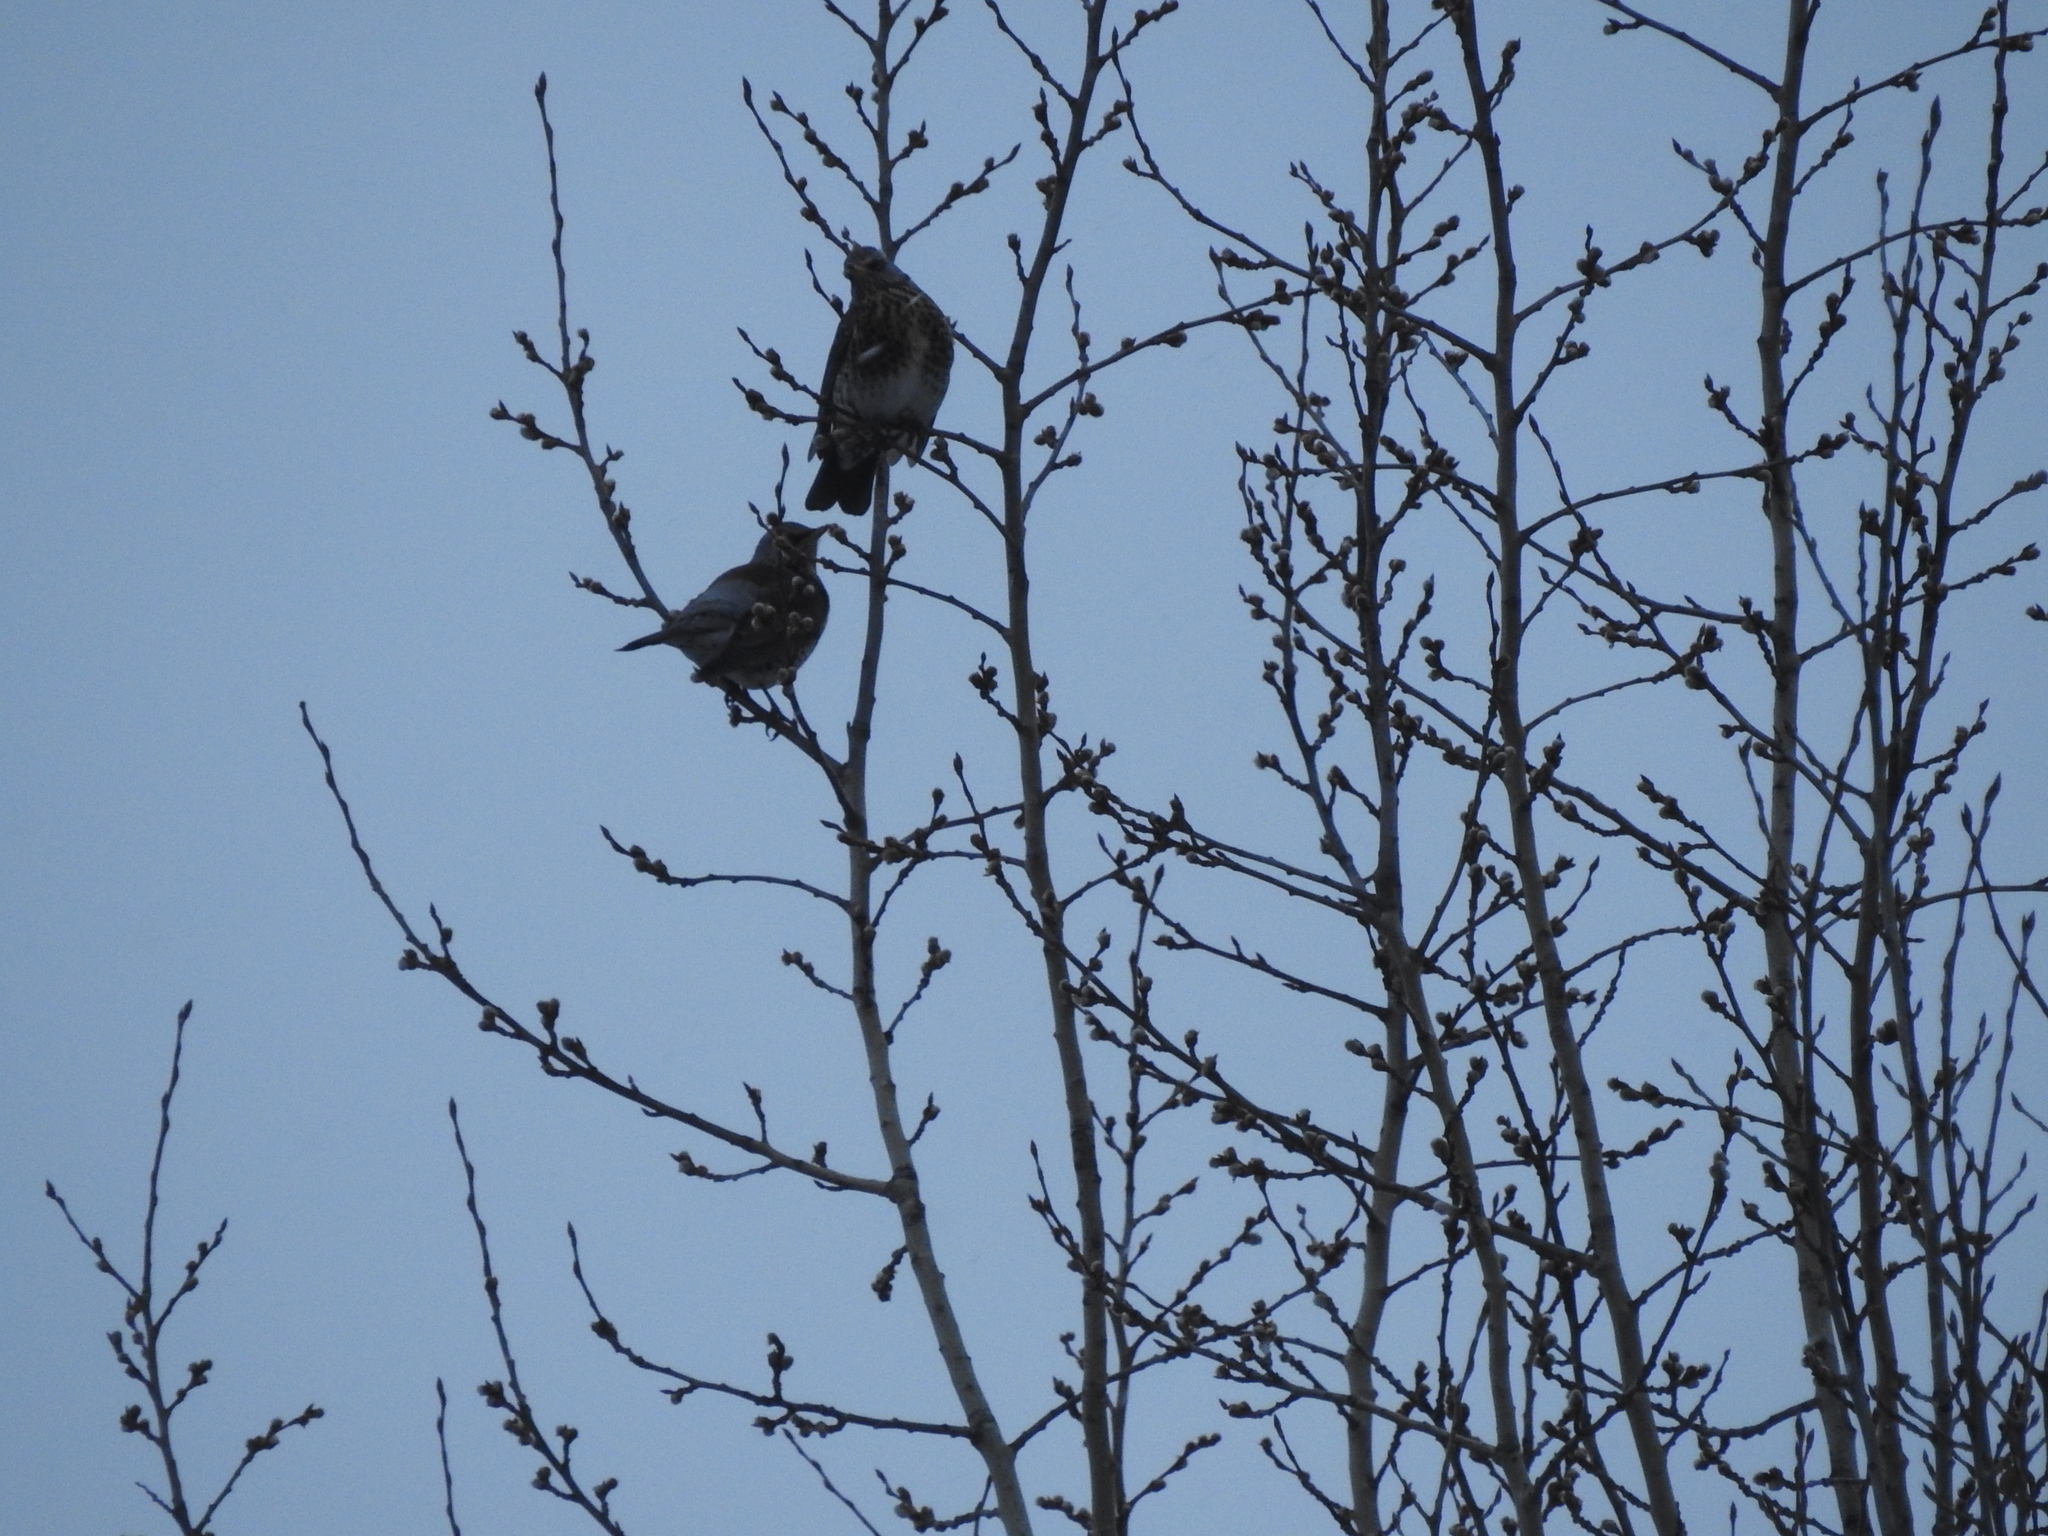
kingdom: Animalia
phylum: Chordata
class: Aves
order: Passeriformes
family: Turdidae
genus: Turdus
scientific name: Turdus pilaris
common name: Fieldfare
